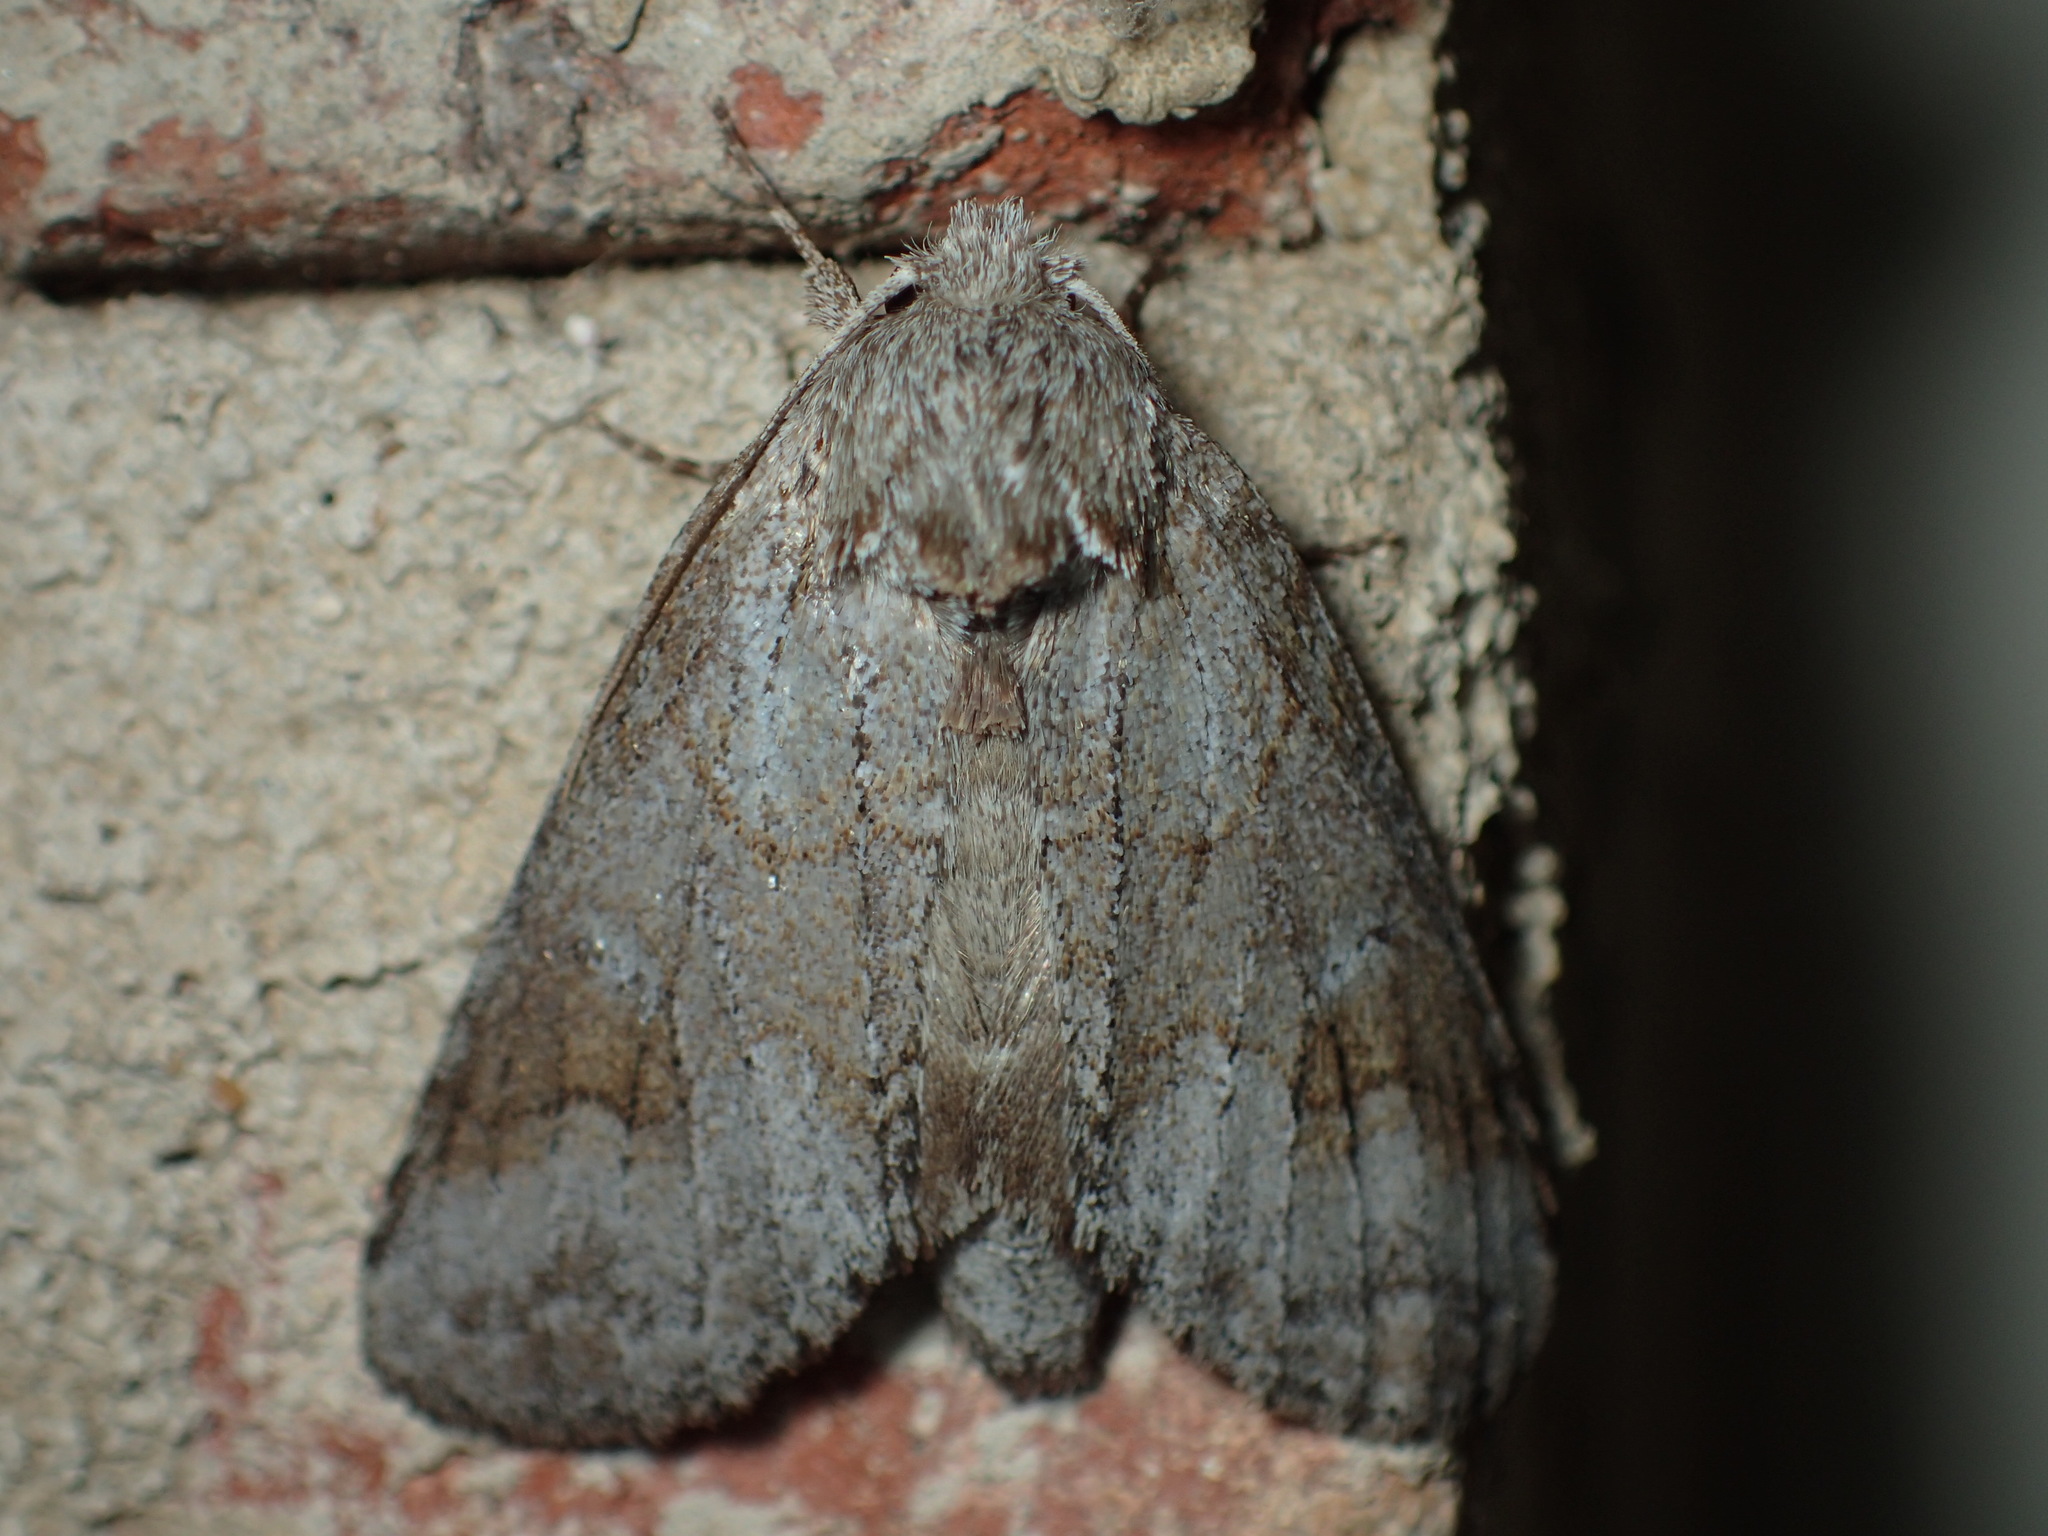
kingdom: Animalia
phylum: Arthropoda
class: Insecta
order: Lepidoptera
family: Notodontidae
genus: Lochmaeus
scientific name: Lochmaeus bilineata
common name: Double-lined prominent
